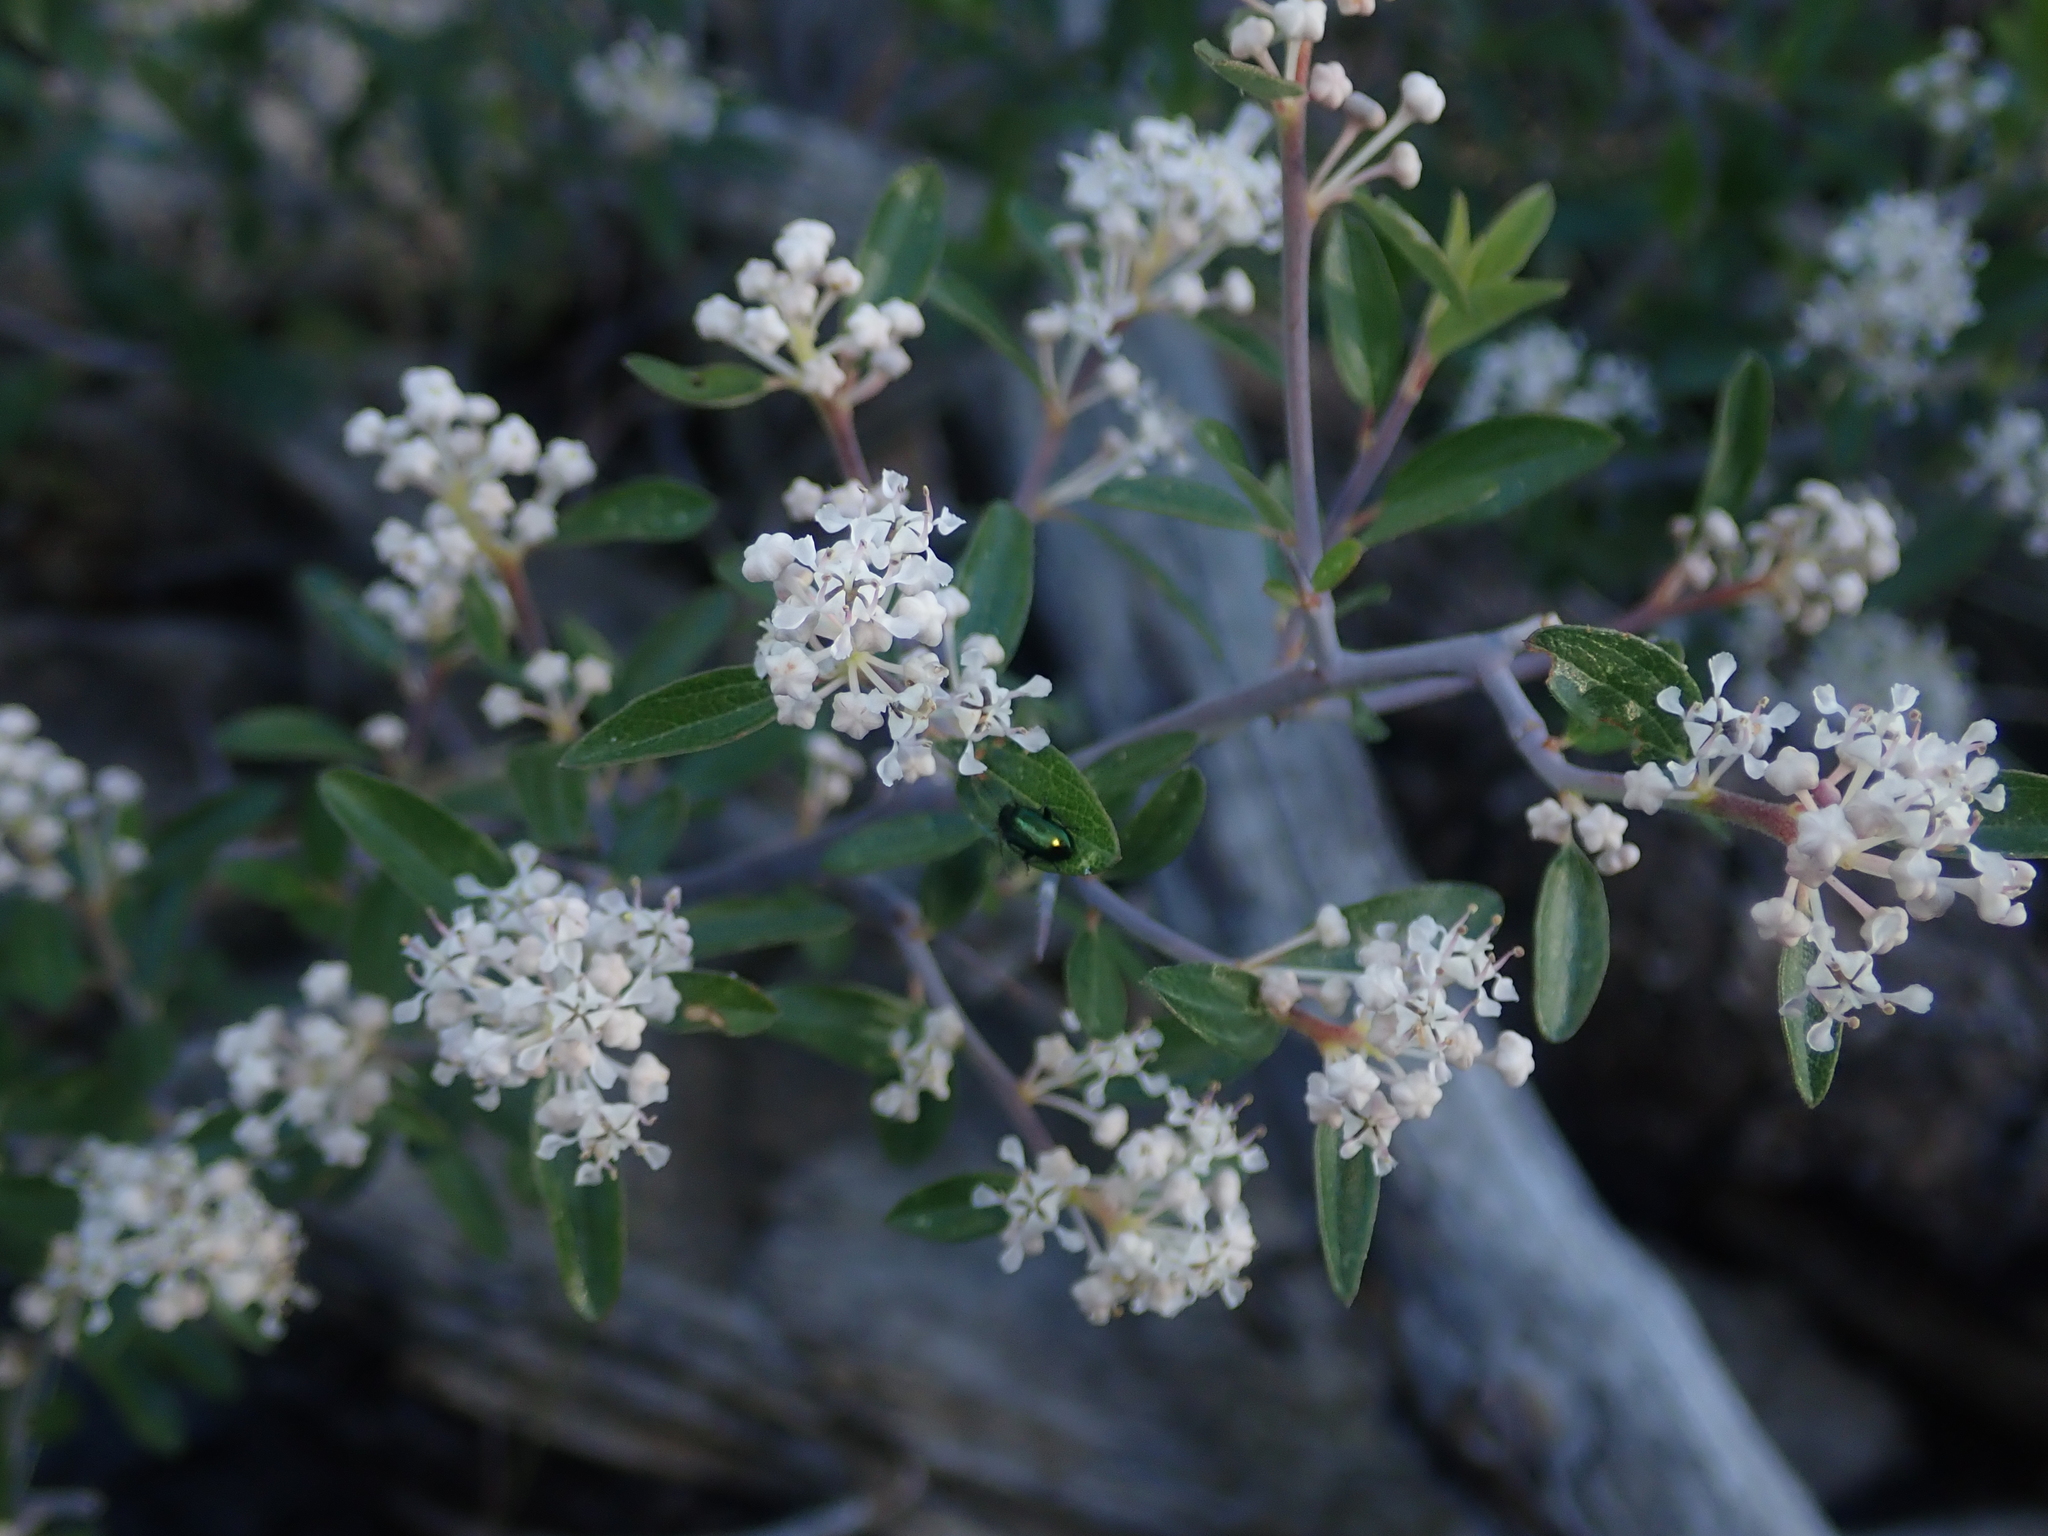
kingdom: Plantae
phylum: Tracheophyta
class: Magnoliopsida
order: Rosales
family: Rhamnaceae
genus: Ceanothus
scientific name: Ceanothus fendleri
